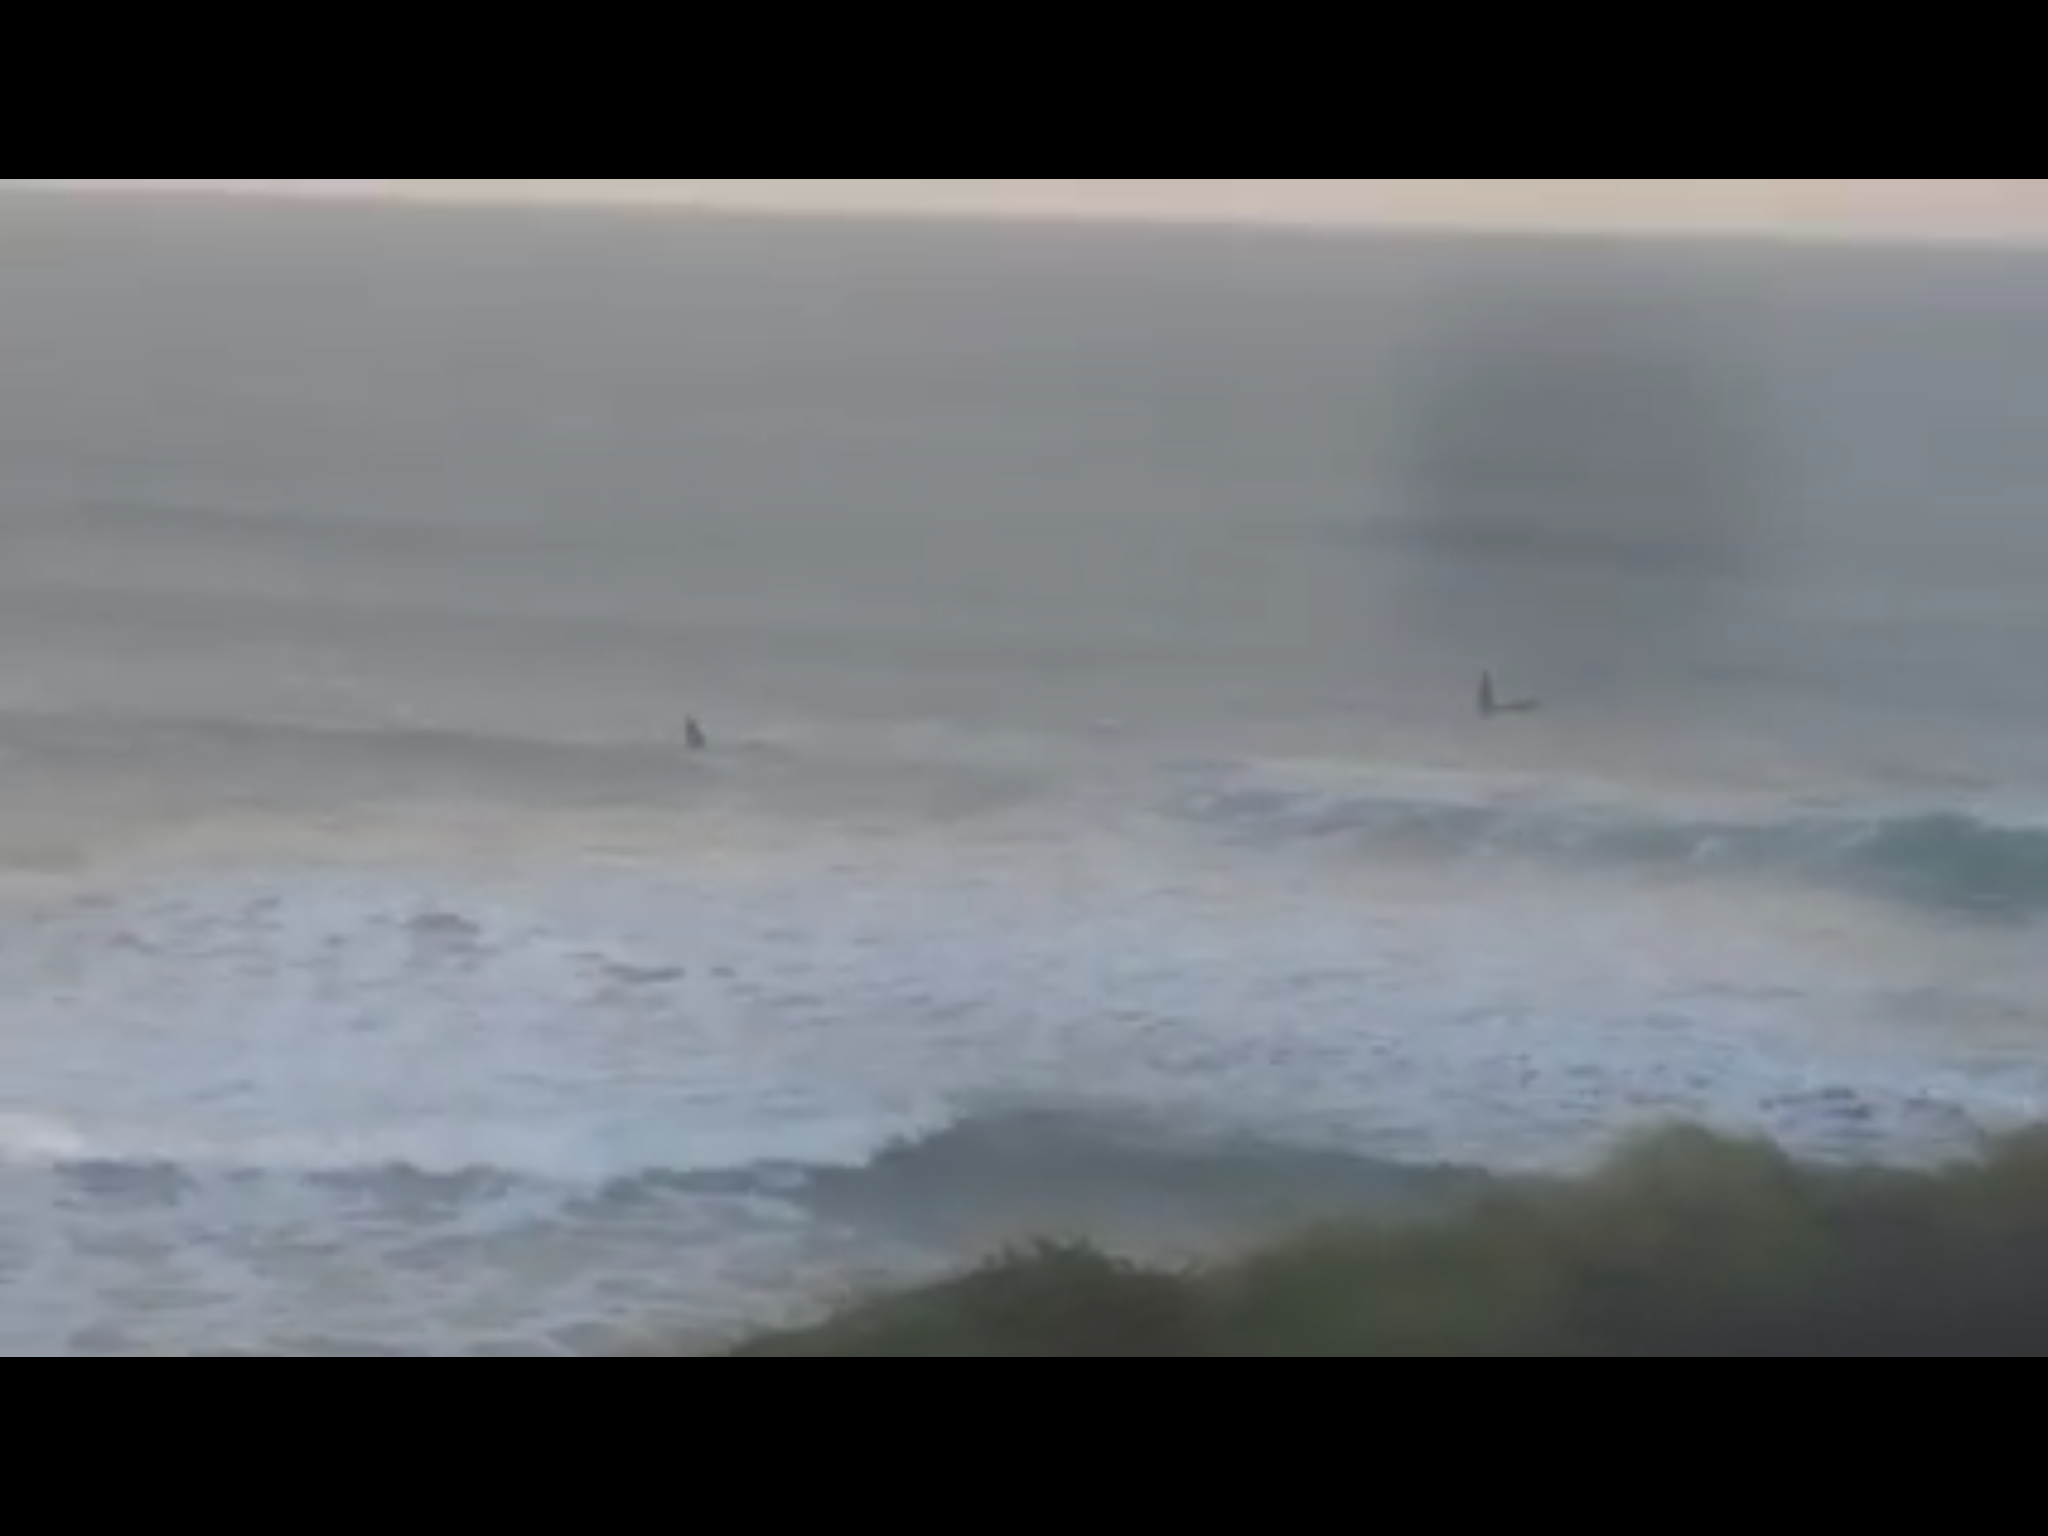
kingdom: Animalia
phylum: Chordata
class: Mammalia
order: Cetacea
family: Delphinidae
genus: Orcinus
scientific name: Orcinus orca
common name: Killer whale
